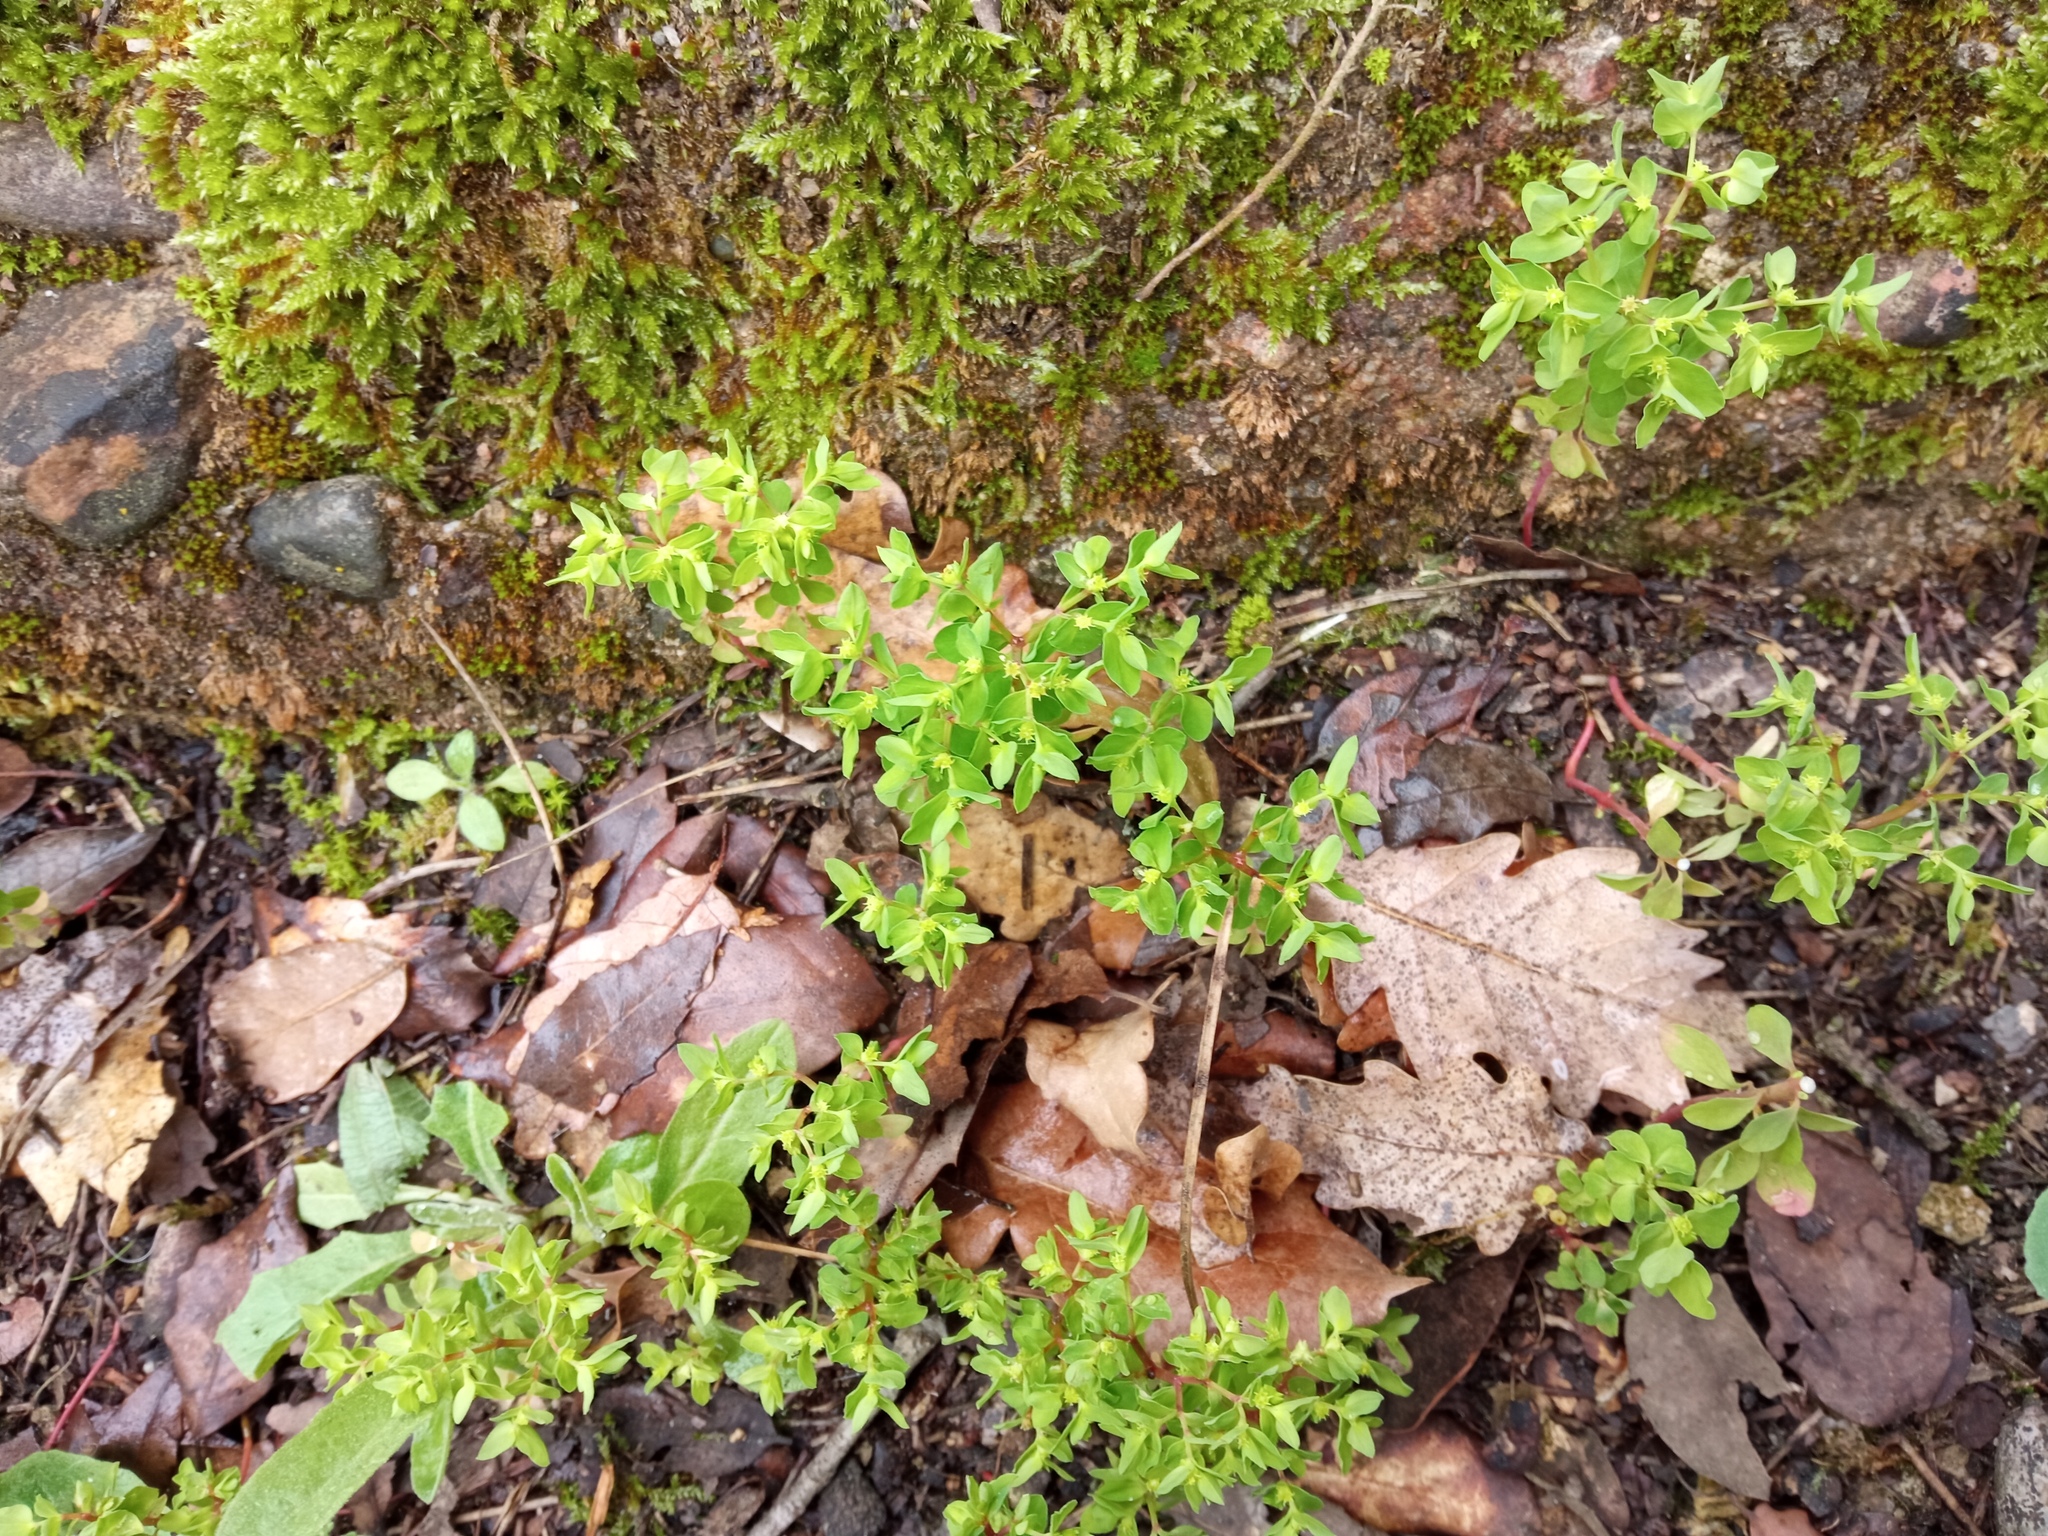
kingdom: Plantae
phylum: Tracheophyta
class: Magnoliopsida
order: Malpighiales
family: Euphorbiaceae
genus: Euphorbia
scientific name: Euphorbia peplus
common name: Petty spurge
